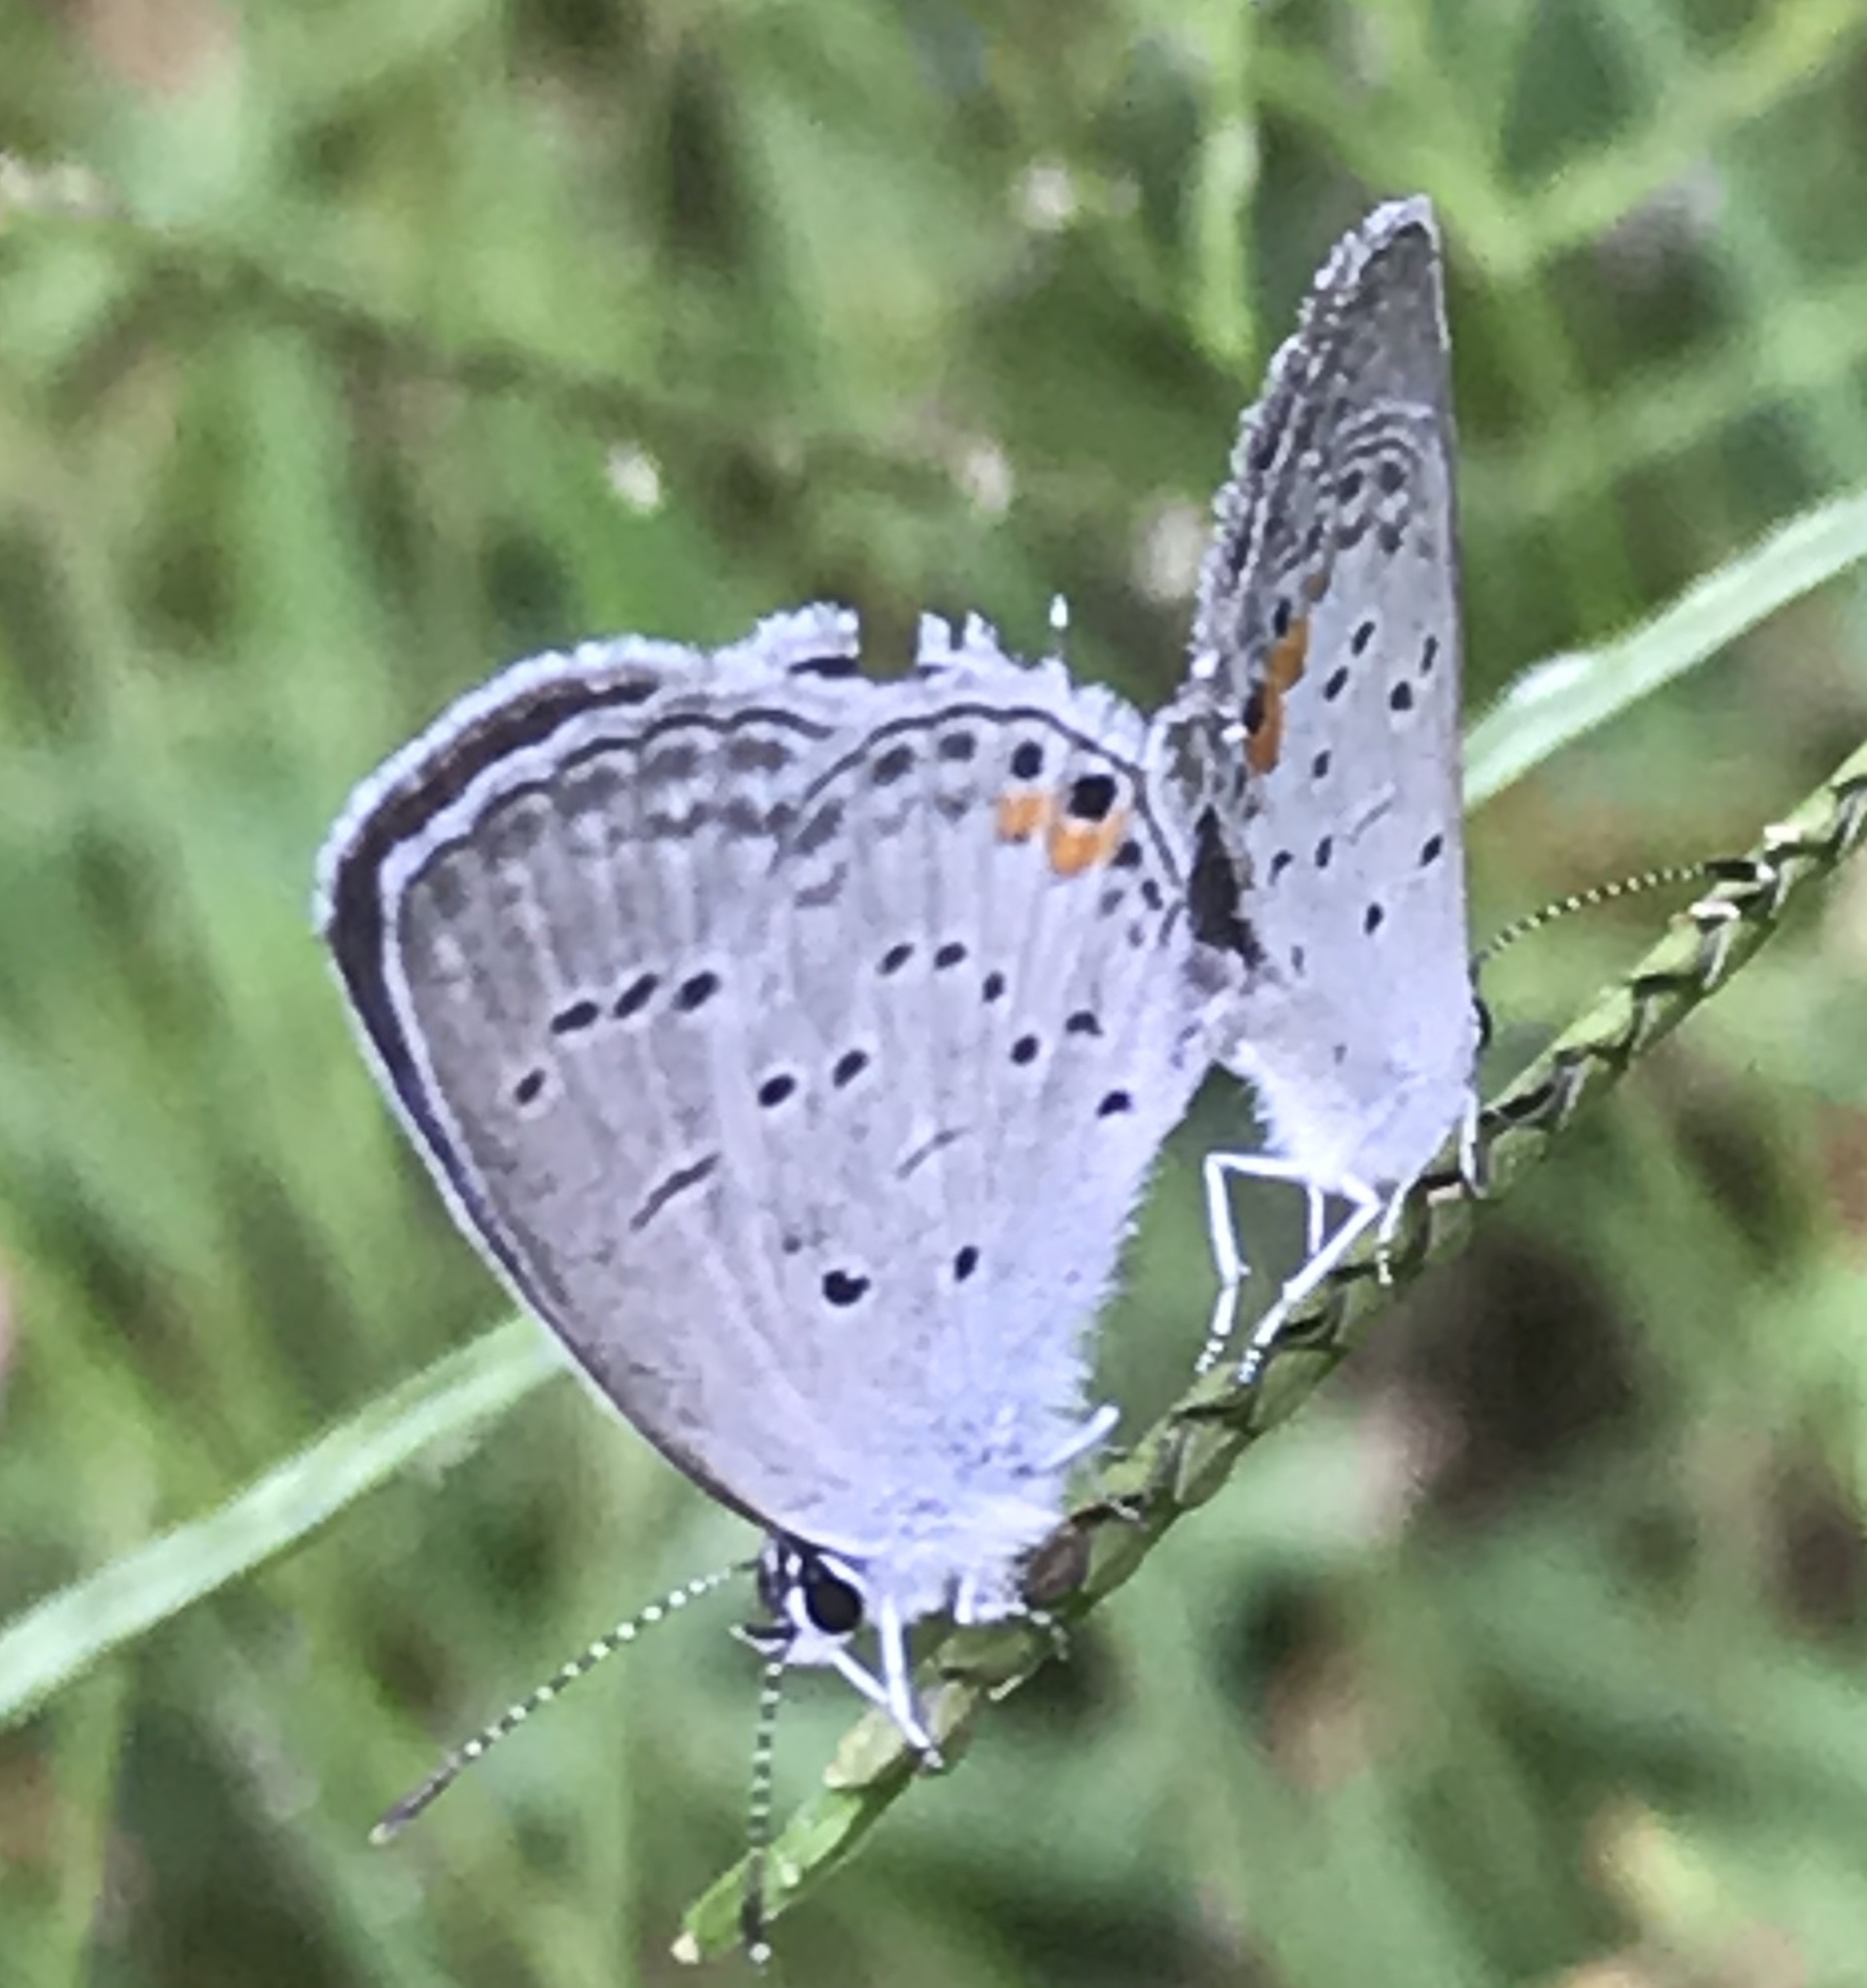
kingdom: Animalia
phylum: Arthropoda
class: Insecta
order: Lepidoptera
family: Lycaenidae
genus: Elkalyce
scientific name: Elkalyce comyntas
